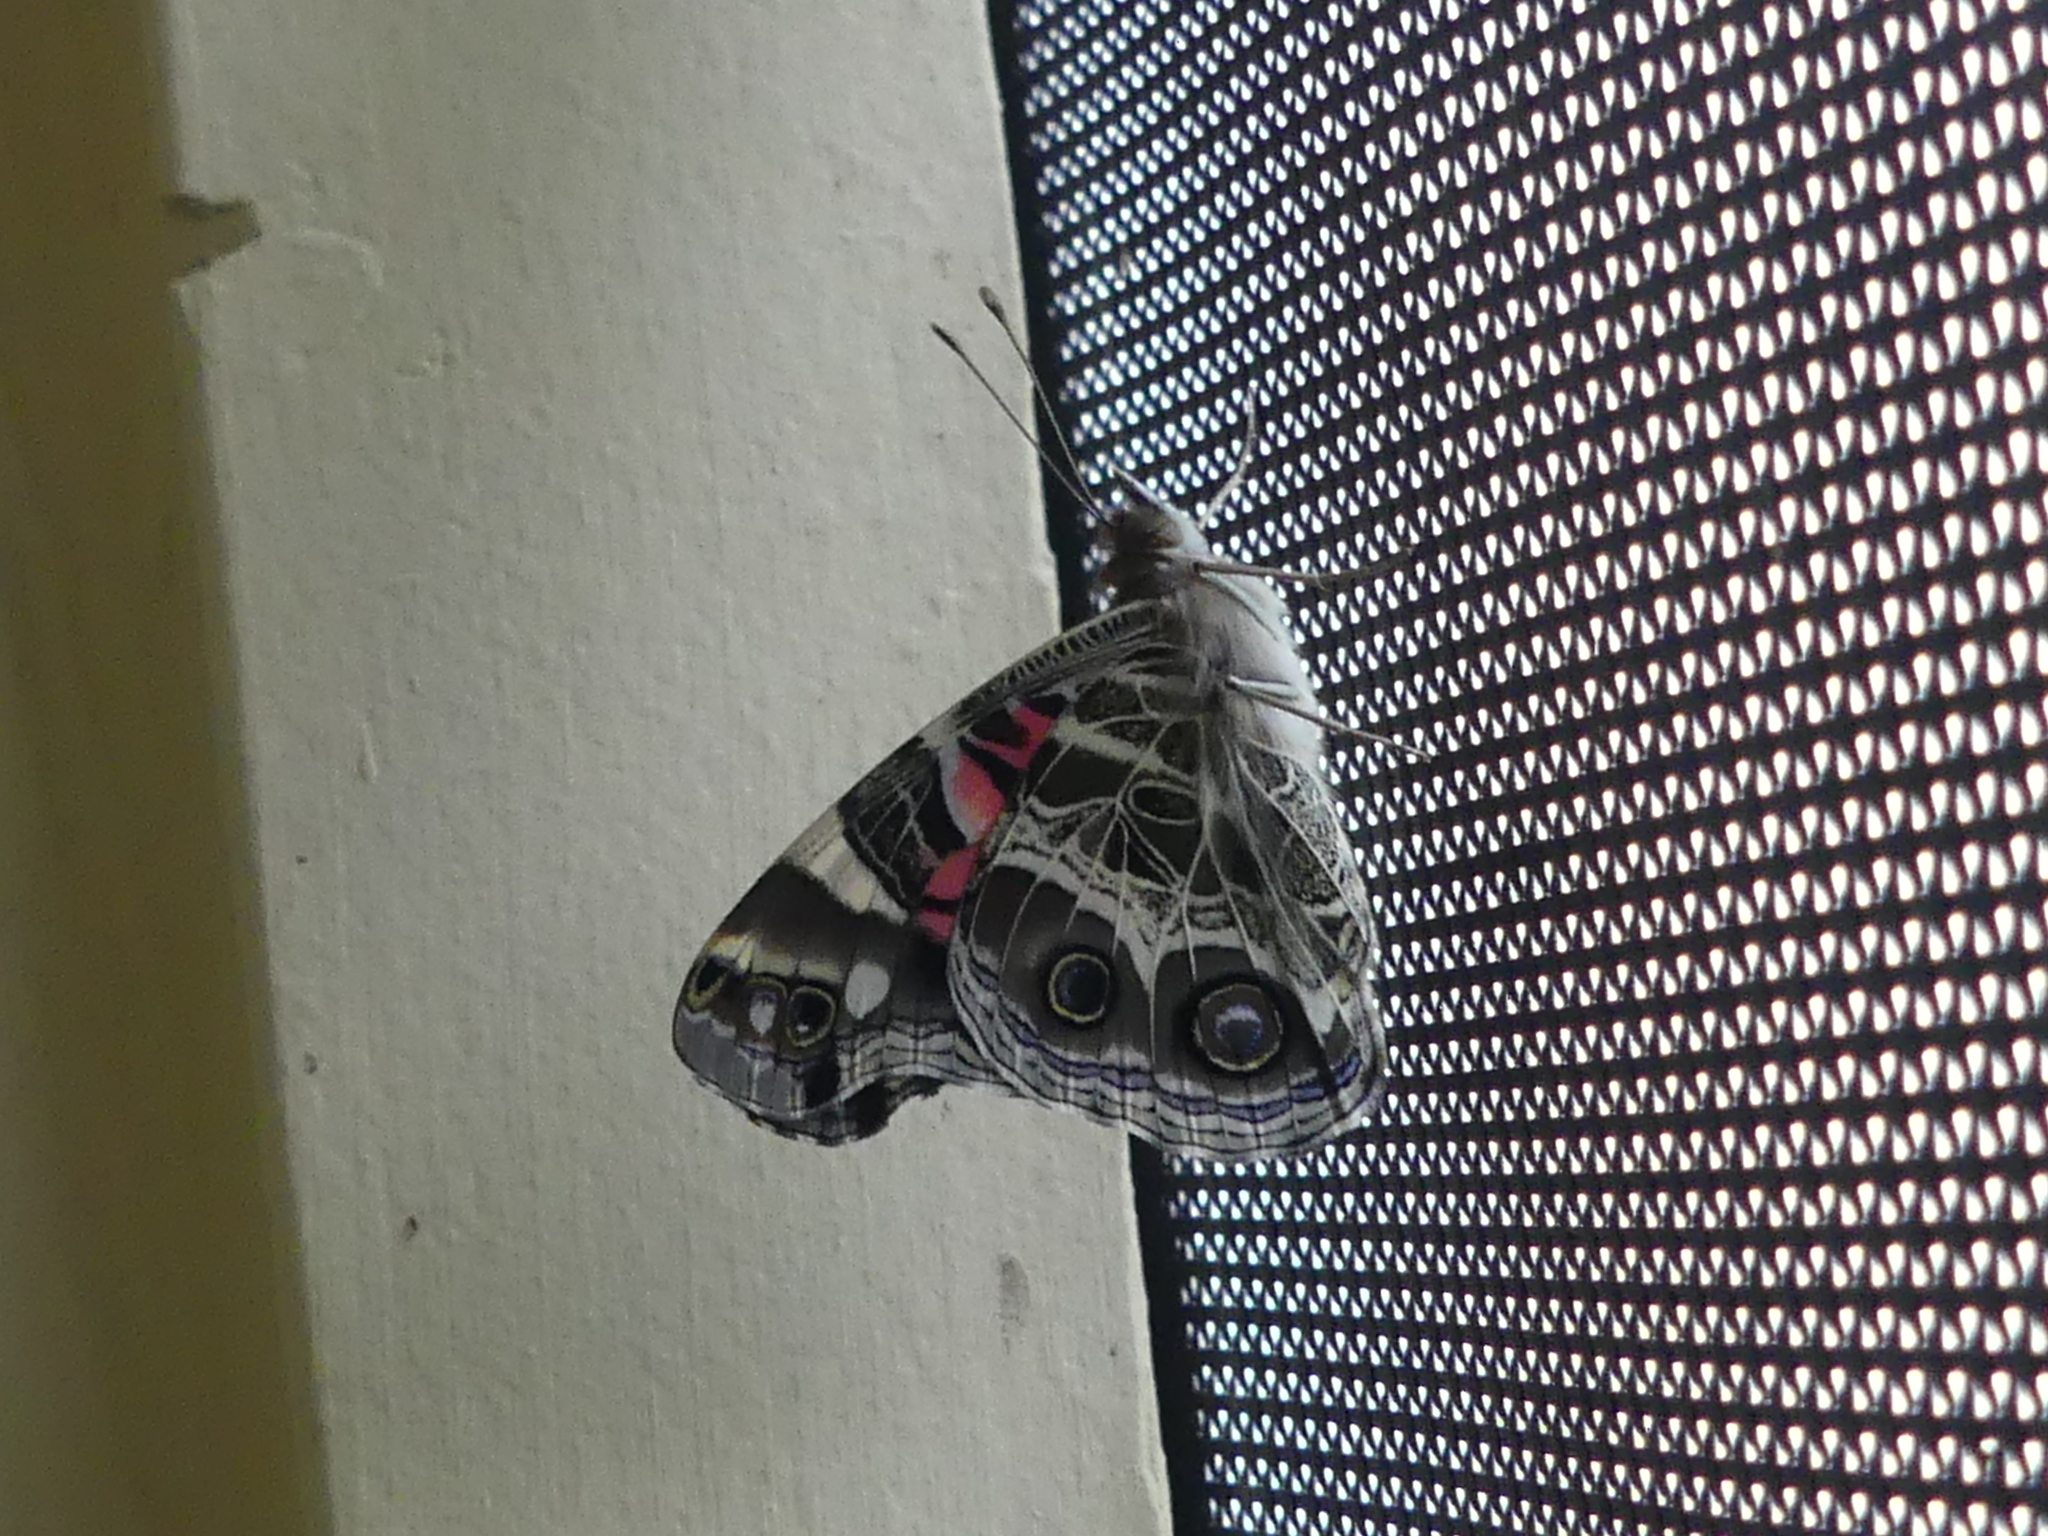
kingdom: Animalia
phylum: Arthropoda
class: Insecta
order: Lepidoptera
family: Nymphalidae
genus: Vanessa
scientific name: Vanessa virginiensis
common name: American lady
